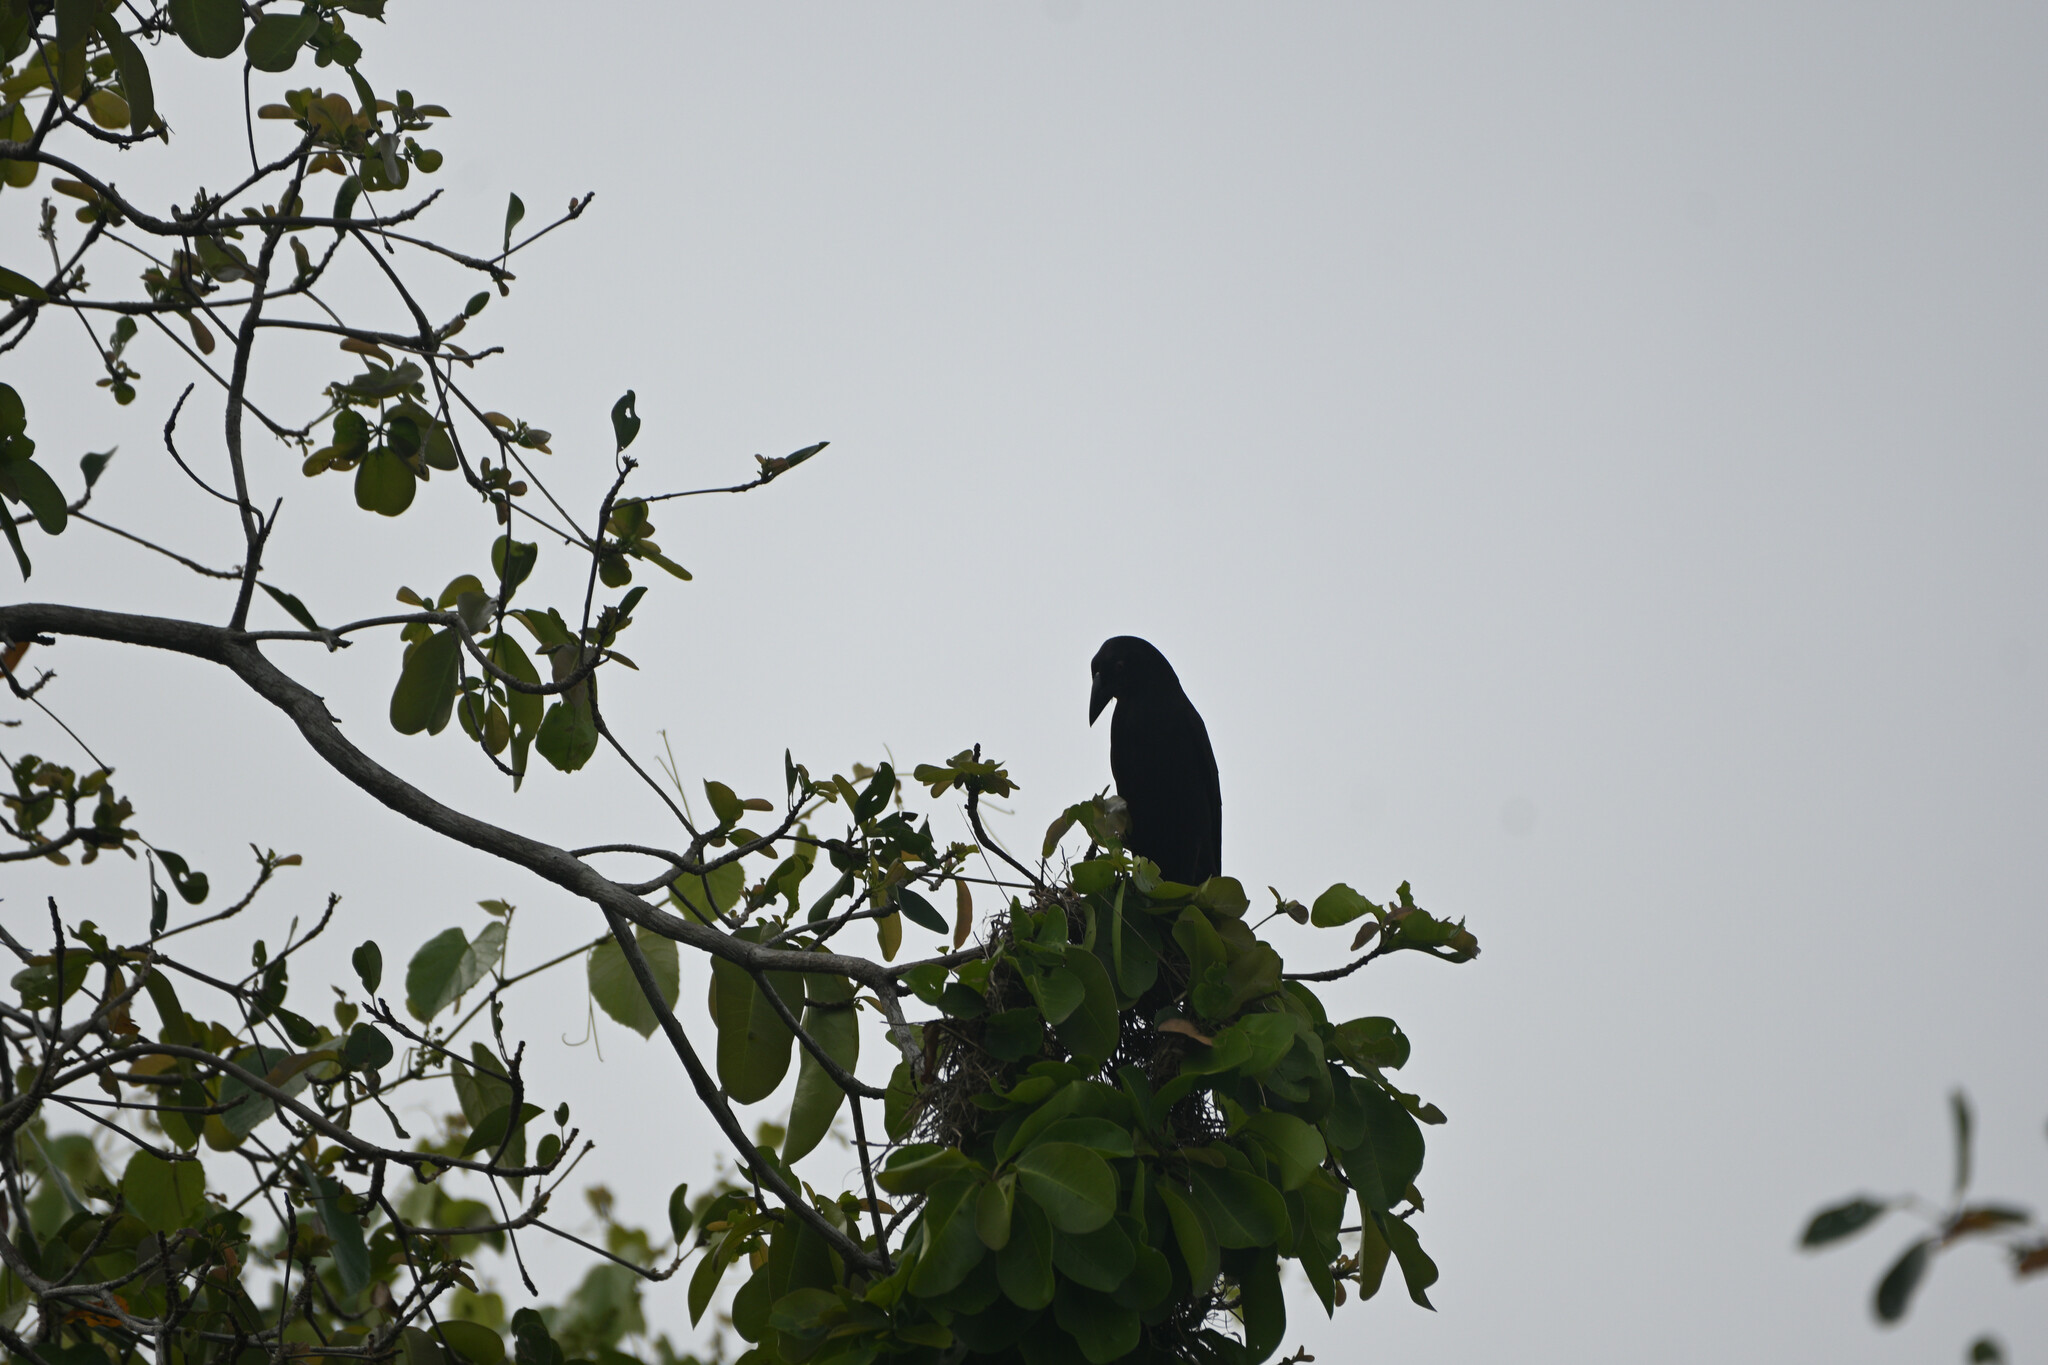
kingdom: Animalia
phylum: Chordata
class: Aves
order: Passeriformes
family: Icteridae
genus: Molothrus
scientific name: Molothrus oryzivorus
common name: Giant cowbird
